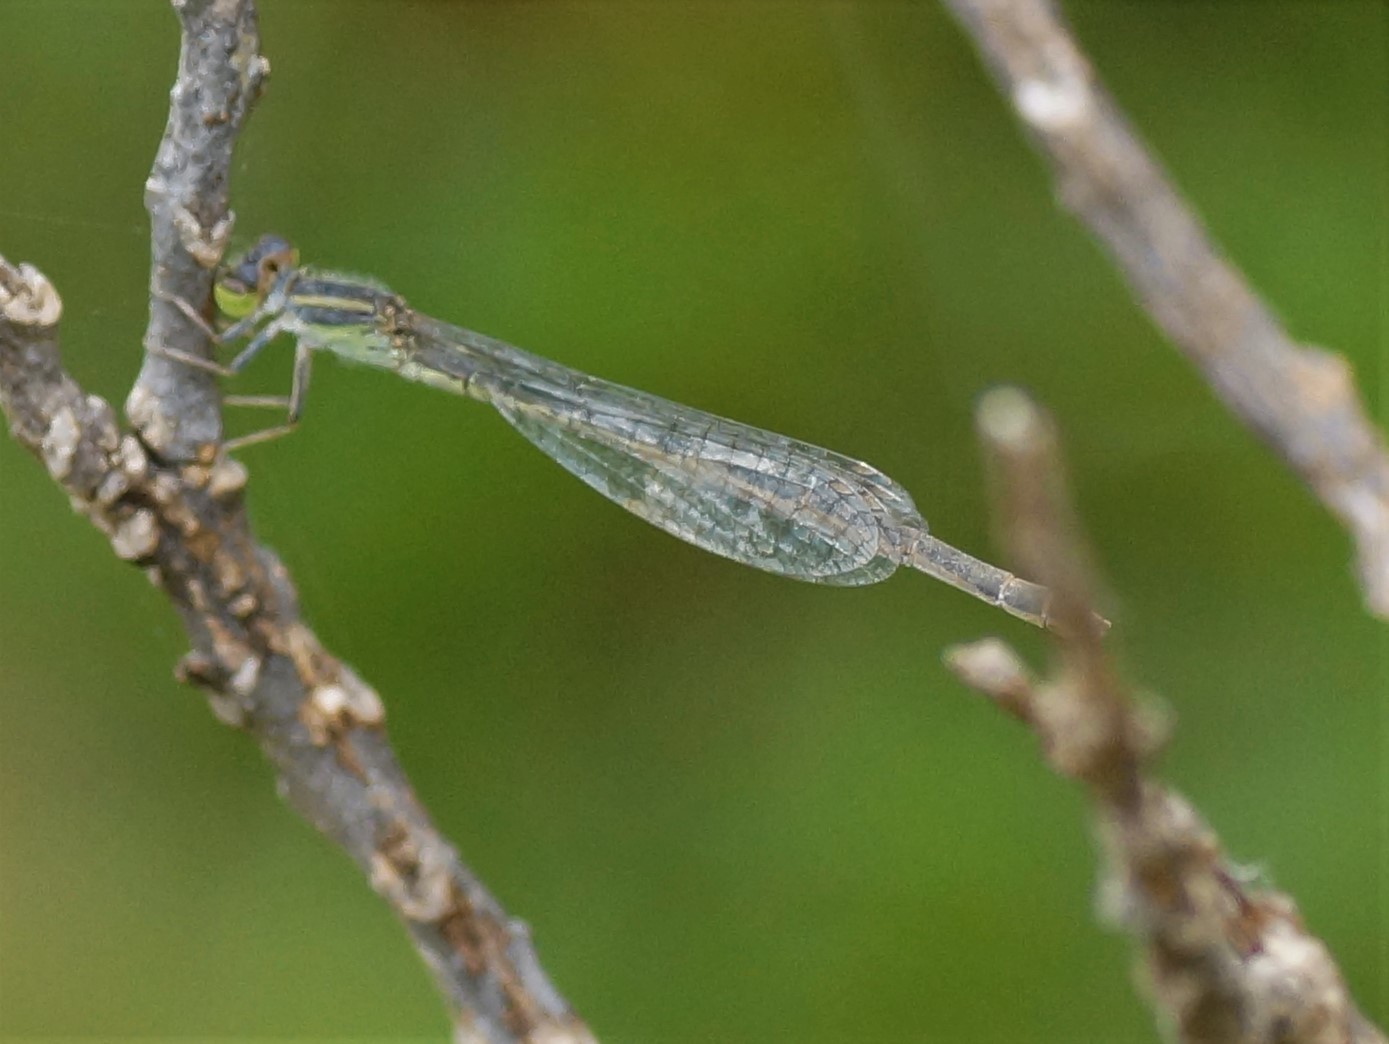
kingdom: Animalia
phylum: Arthropoda
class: Insecta
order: Odonata
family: Coenagrionidae
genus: Ischnura
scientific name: Ischnura aurora
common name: Gossamer damselfly
